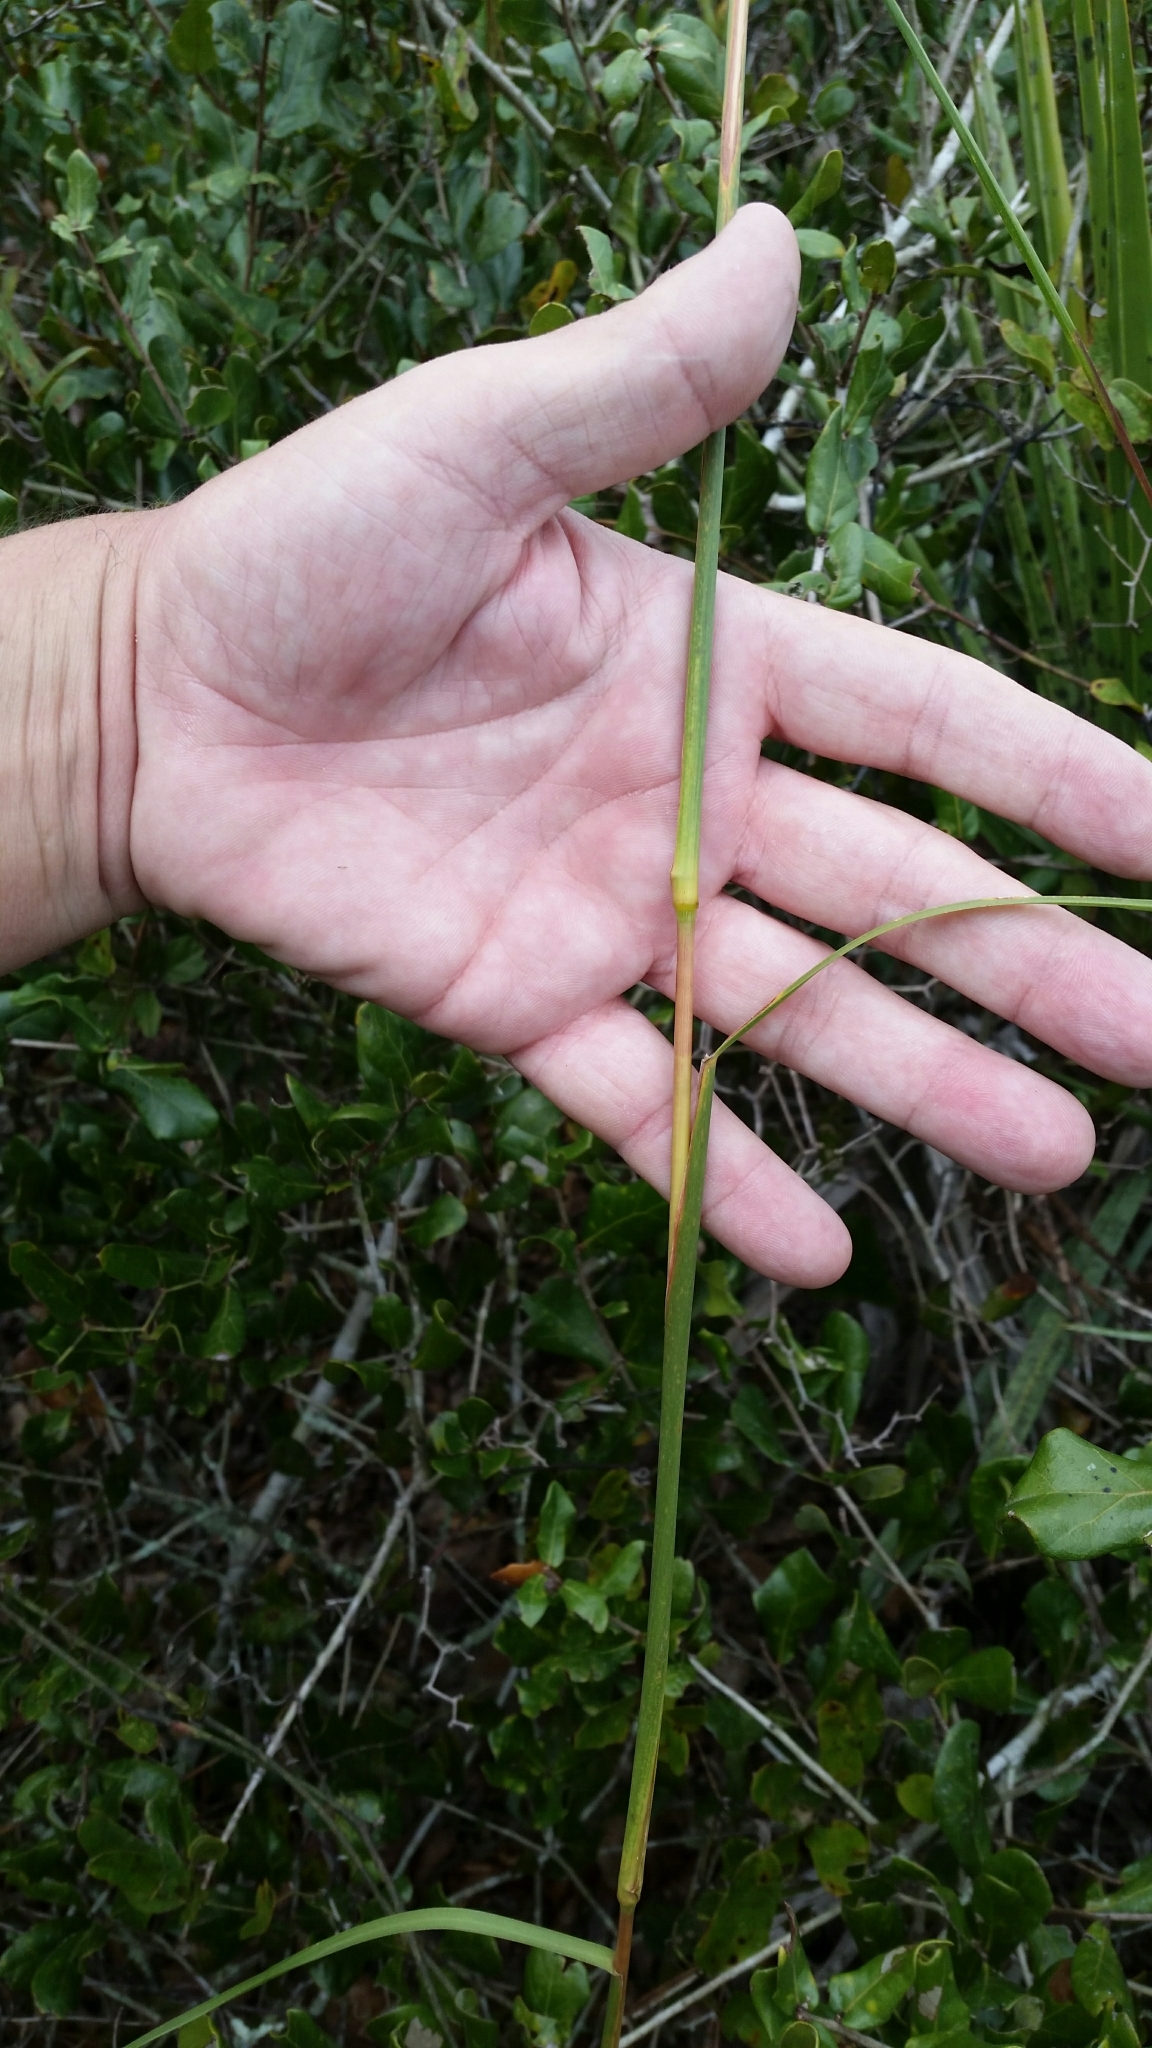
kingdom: Plantae
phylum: Tracheophyta
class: Liliopsida
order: Poales
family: Poaceae
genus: Andropogon
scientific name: Andropogon floridanus
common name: Florida bluestem
